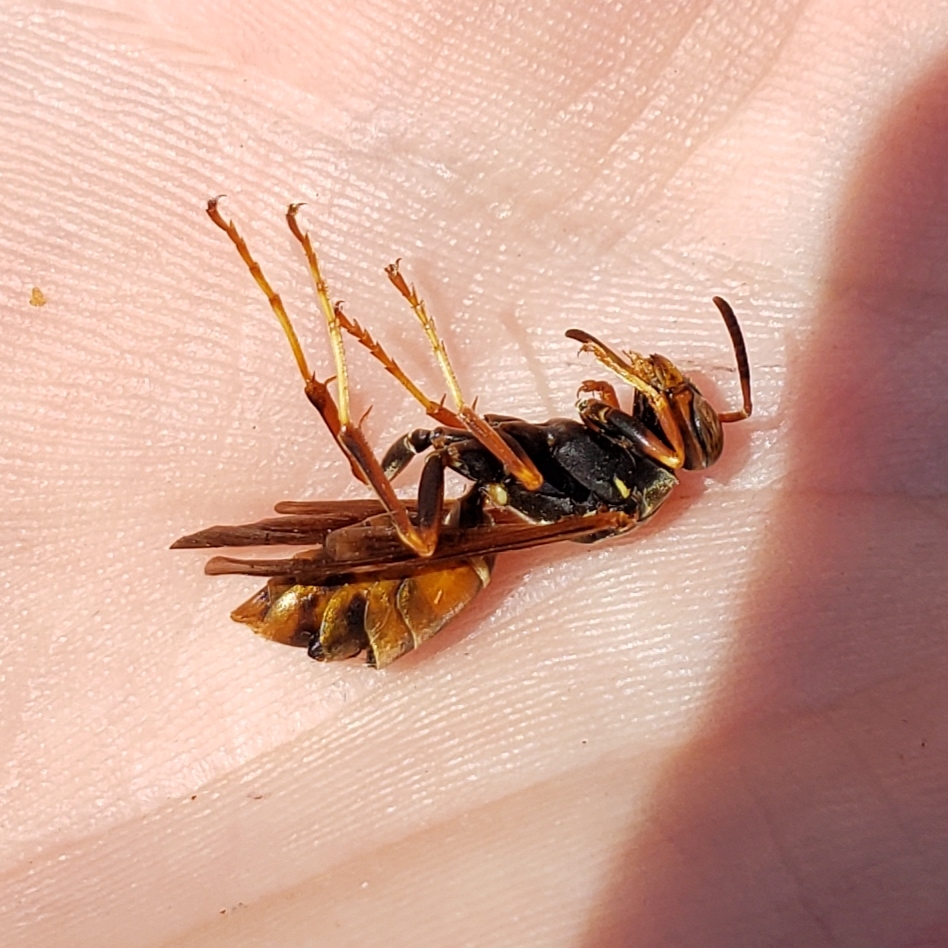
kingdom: Animalia
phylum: Arthropoda
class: Insecta
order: Strepsiptera
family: Xenidae
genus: Xenos
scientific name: Xenos pecki
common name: Twisted wing parasite
